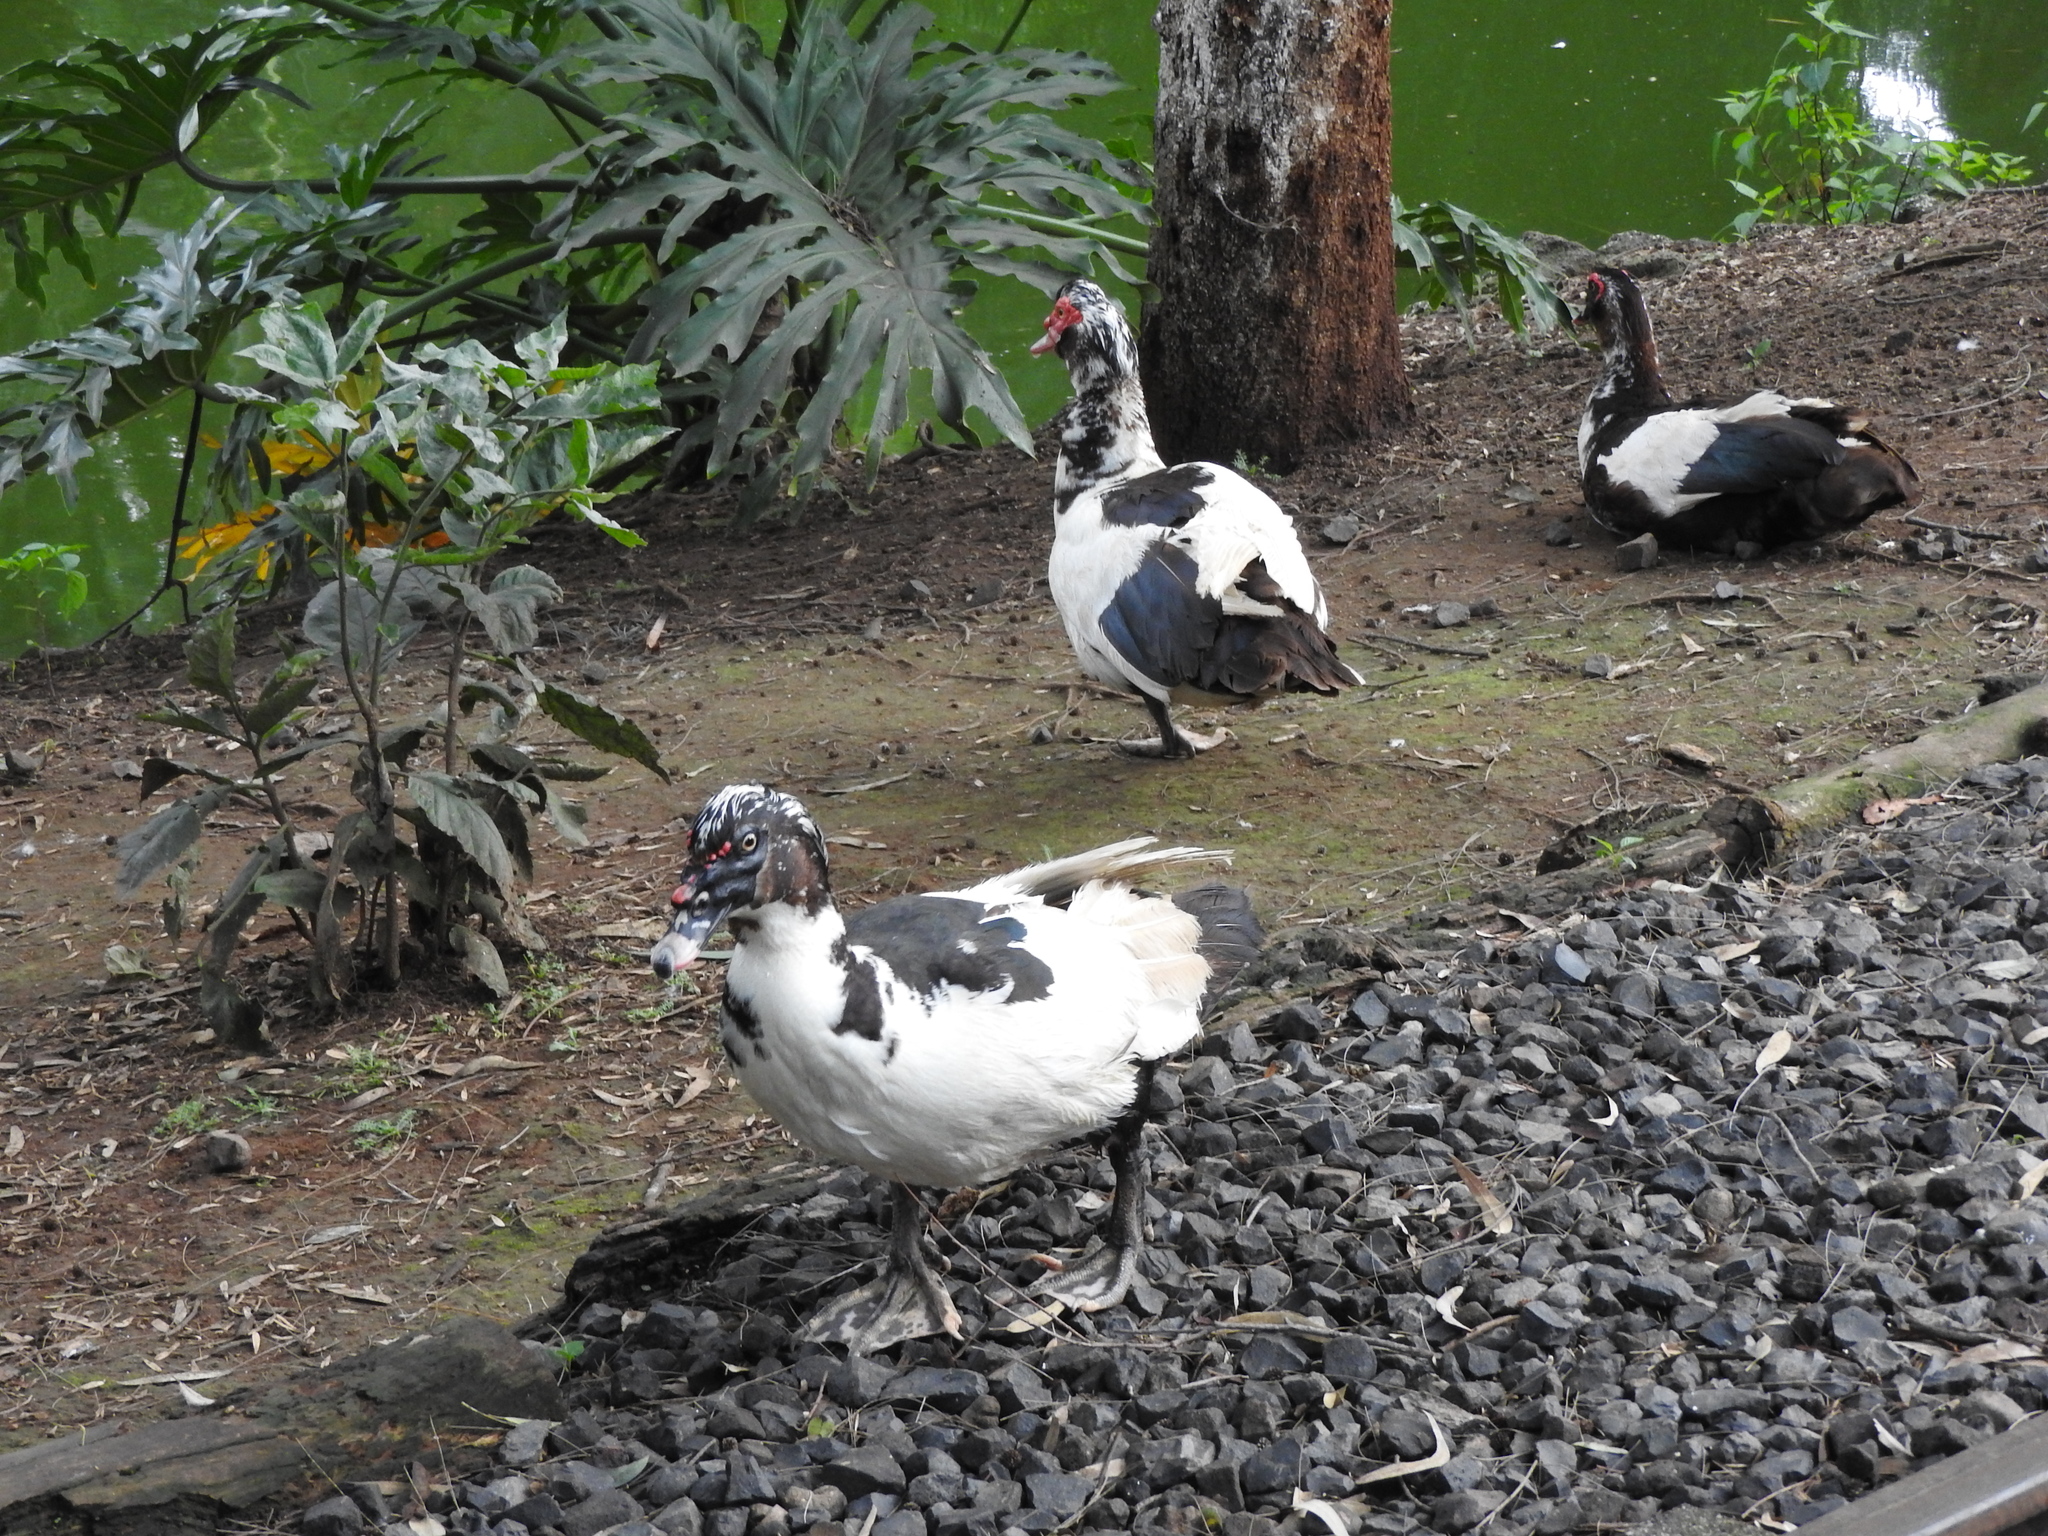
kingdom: Animalia
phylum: Chordata
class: Aves
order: Anseriformes
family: Anatidae
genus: Cairina
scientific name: Cairina moschata
